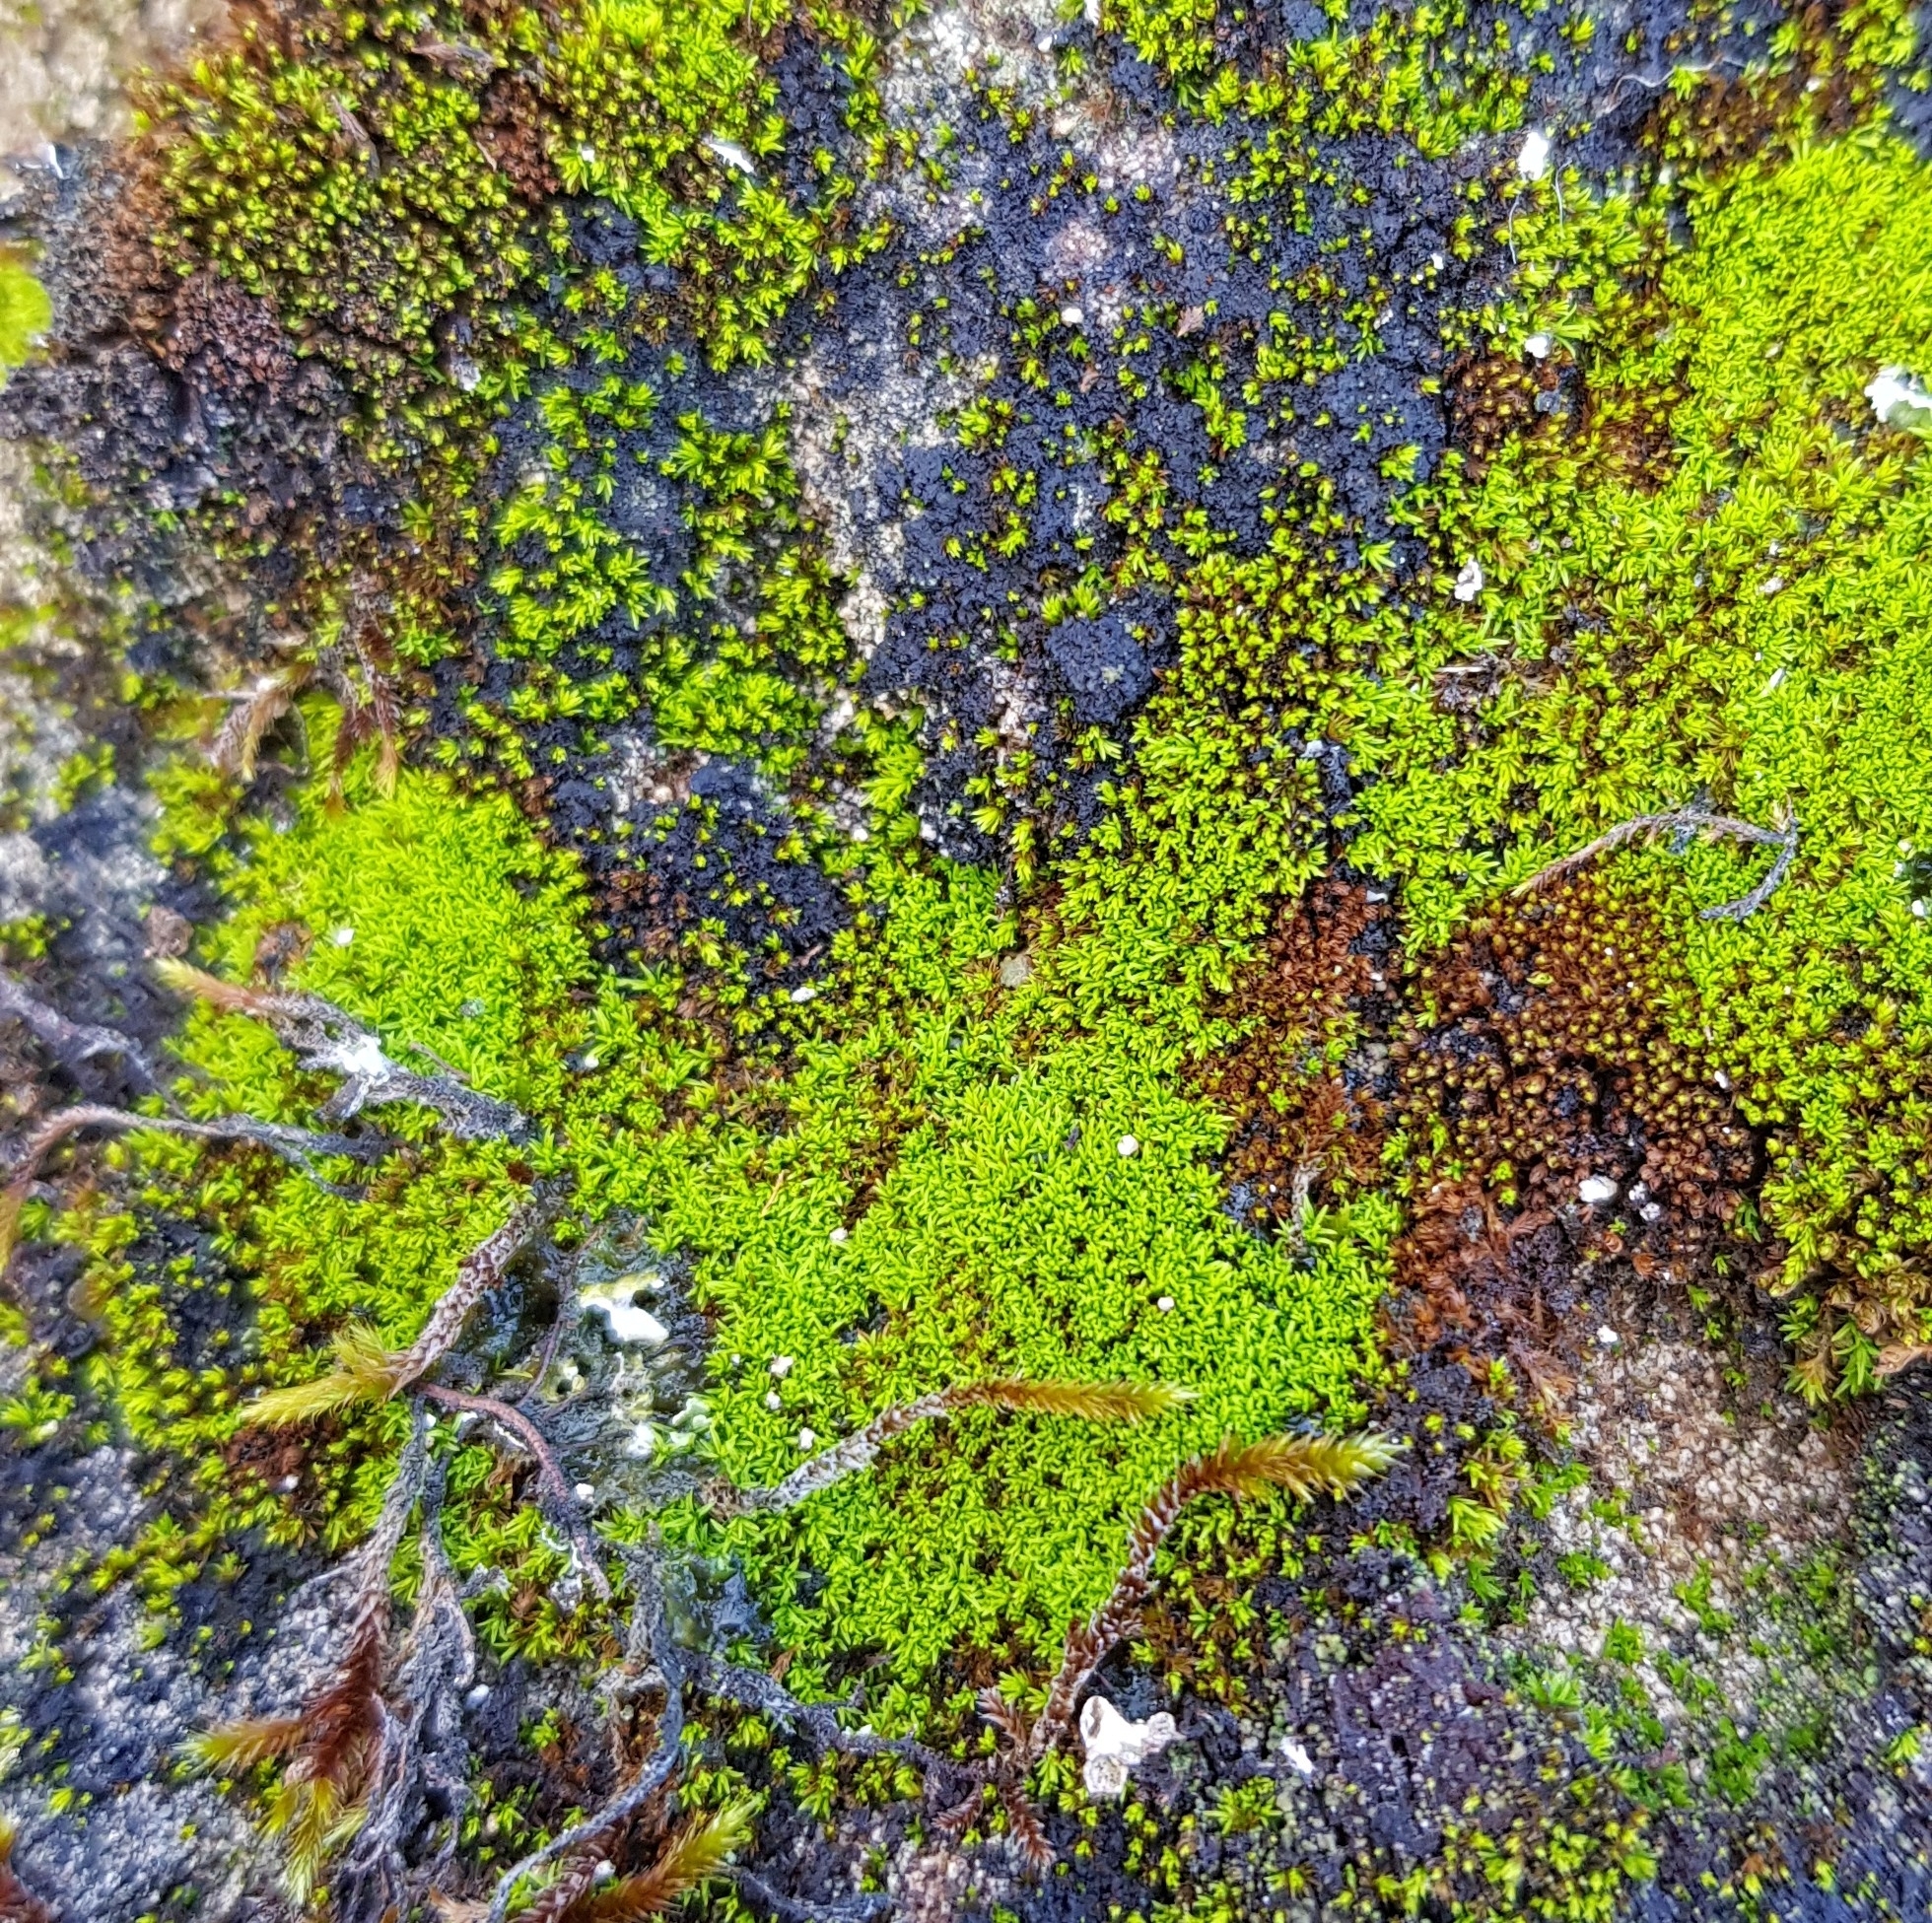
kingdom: Plantae
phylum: Bryophyta
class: Bryopsida
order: Pottiales
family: Pottiaceae
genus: Pseudocrossidium
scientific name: Pseudocrossidium revolutum
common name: Revolute beard-moss
